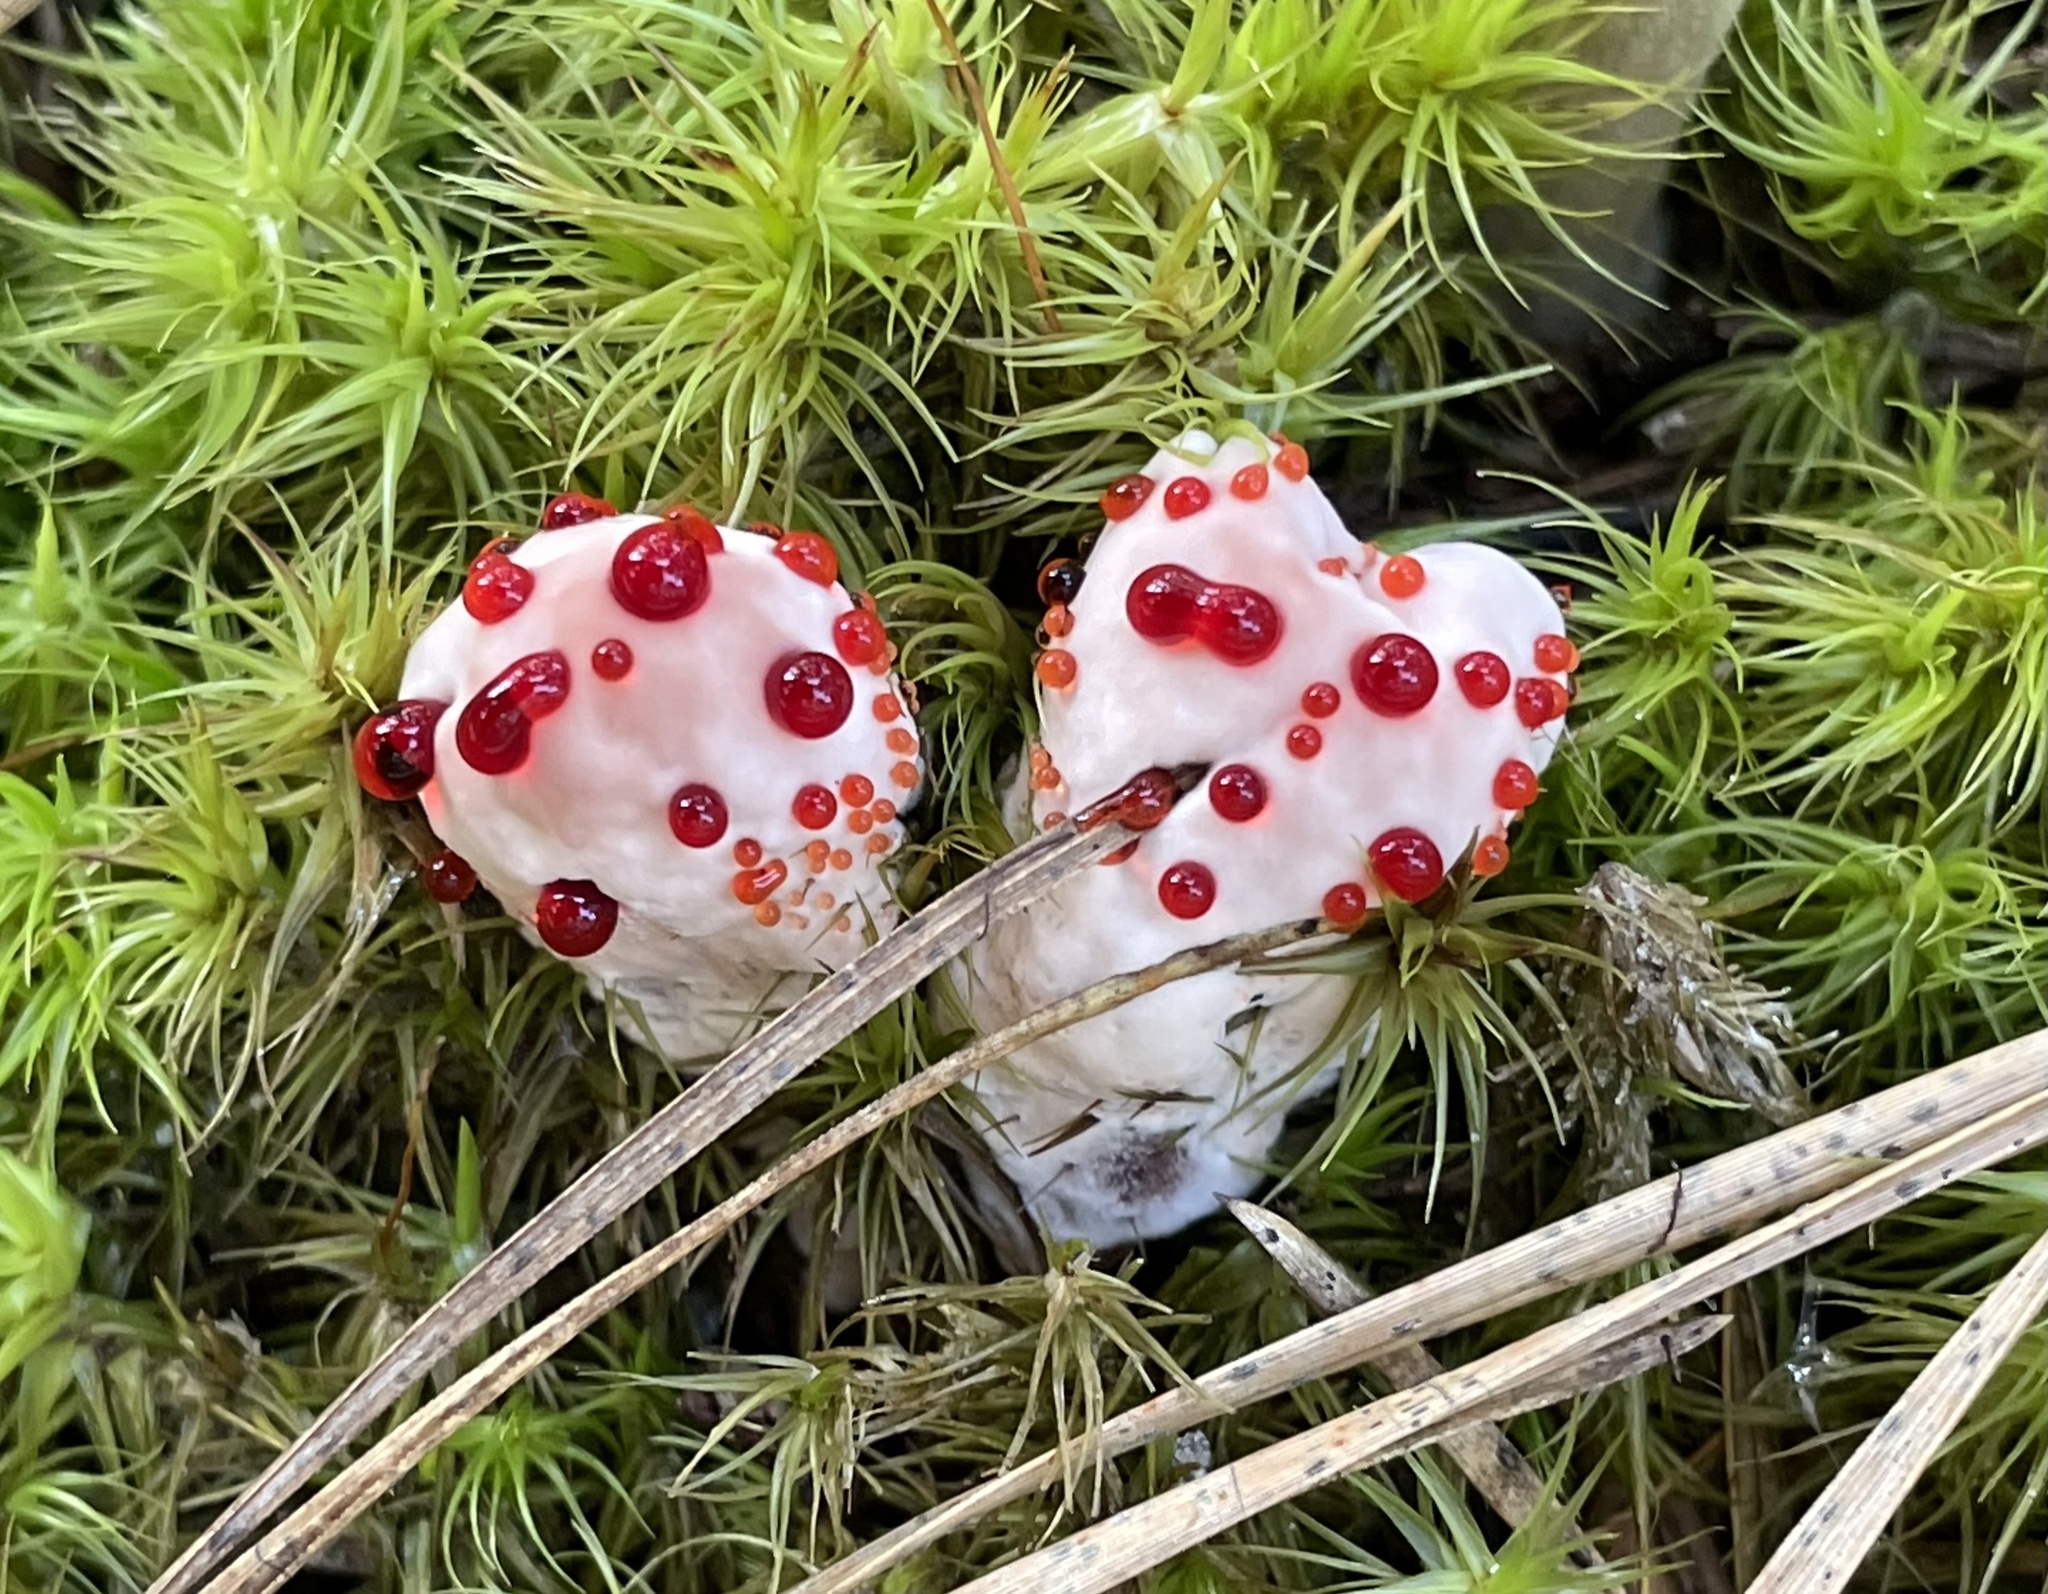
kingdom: Fungi
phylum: Basidiomycota
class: Agaricomycetes
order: Thelephorales
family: Bankeraceae
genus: Hydnellum
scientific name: Hydnellum peckii
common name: Devil's tooth
